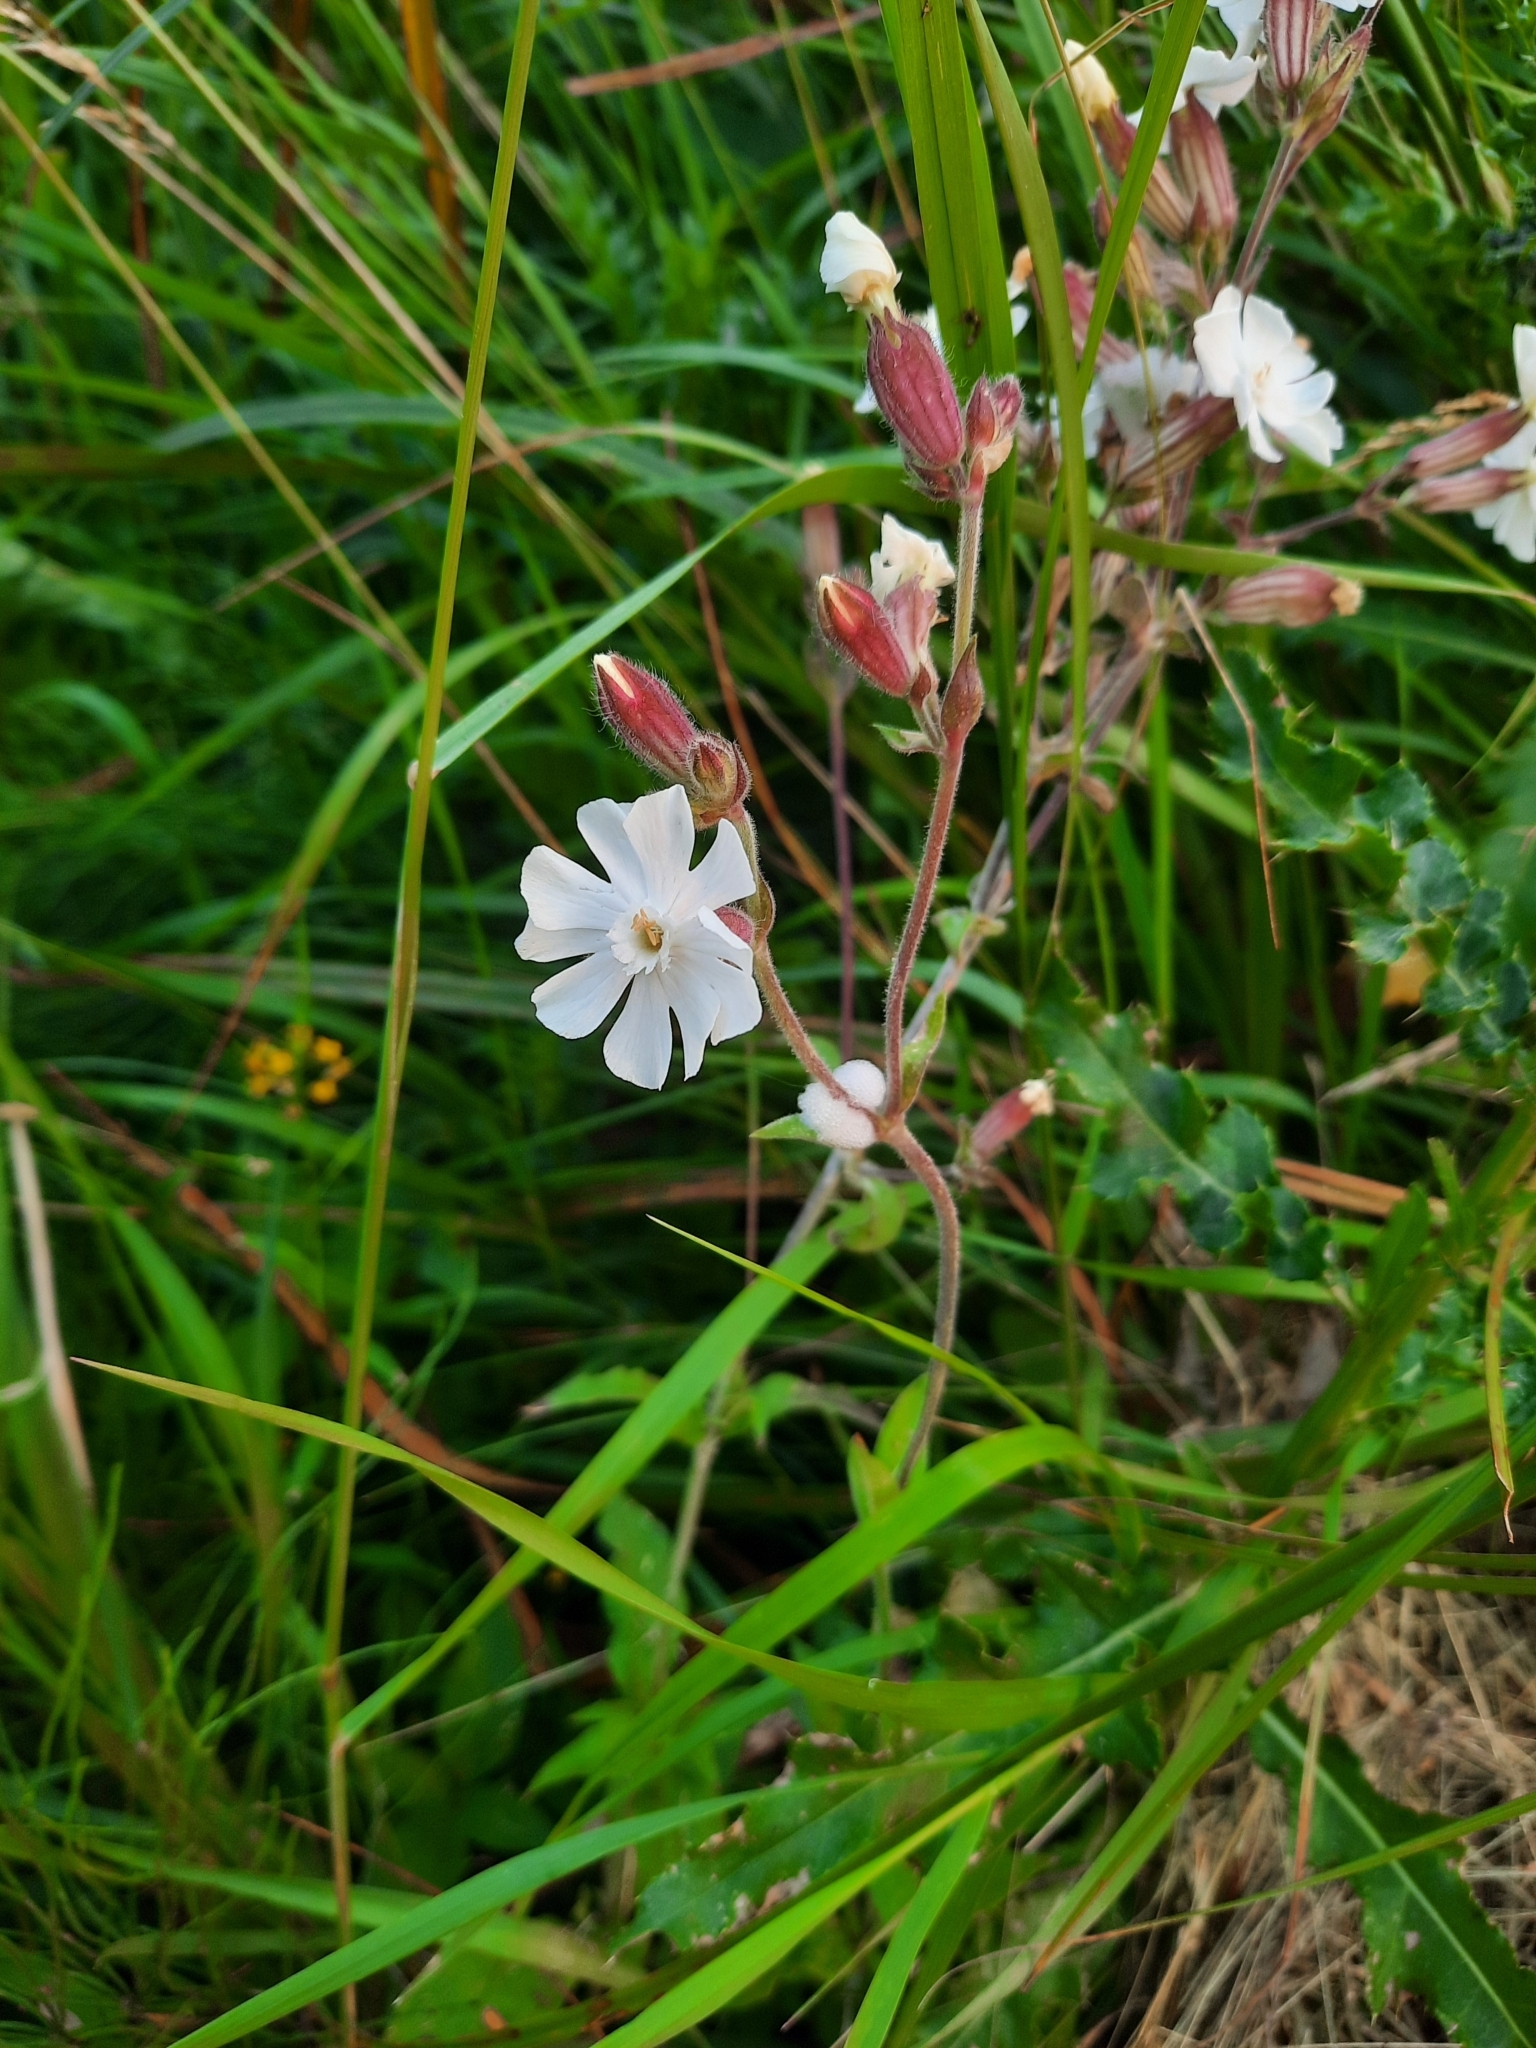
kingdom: Plantae
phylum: Tracheophyta
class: Magnoliopsida
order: Caryophyllales
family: Caryophyllaceae
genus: Silene
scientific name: Silene latifolia
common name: White campion
